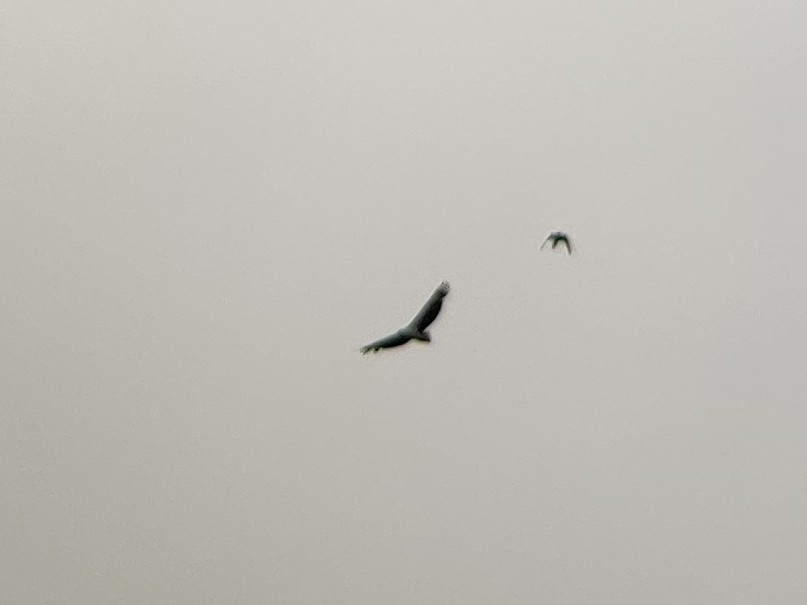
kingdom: Animalia
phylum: Chordata
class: Aves
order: Accipitriformes
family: Accipitridae
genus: Haliaeetus
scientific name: Haliaeetus leucogaster
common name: White-bellied sea eagle
